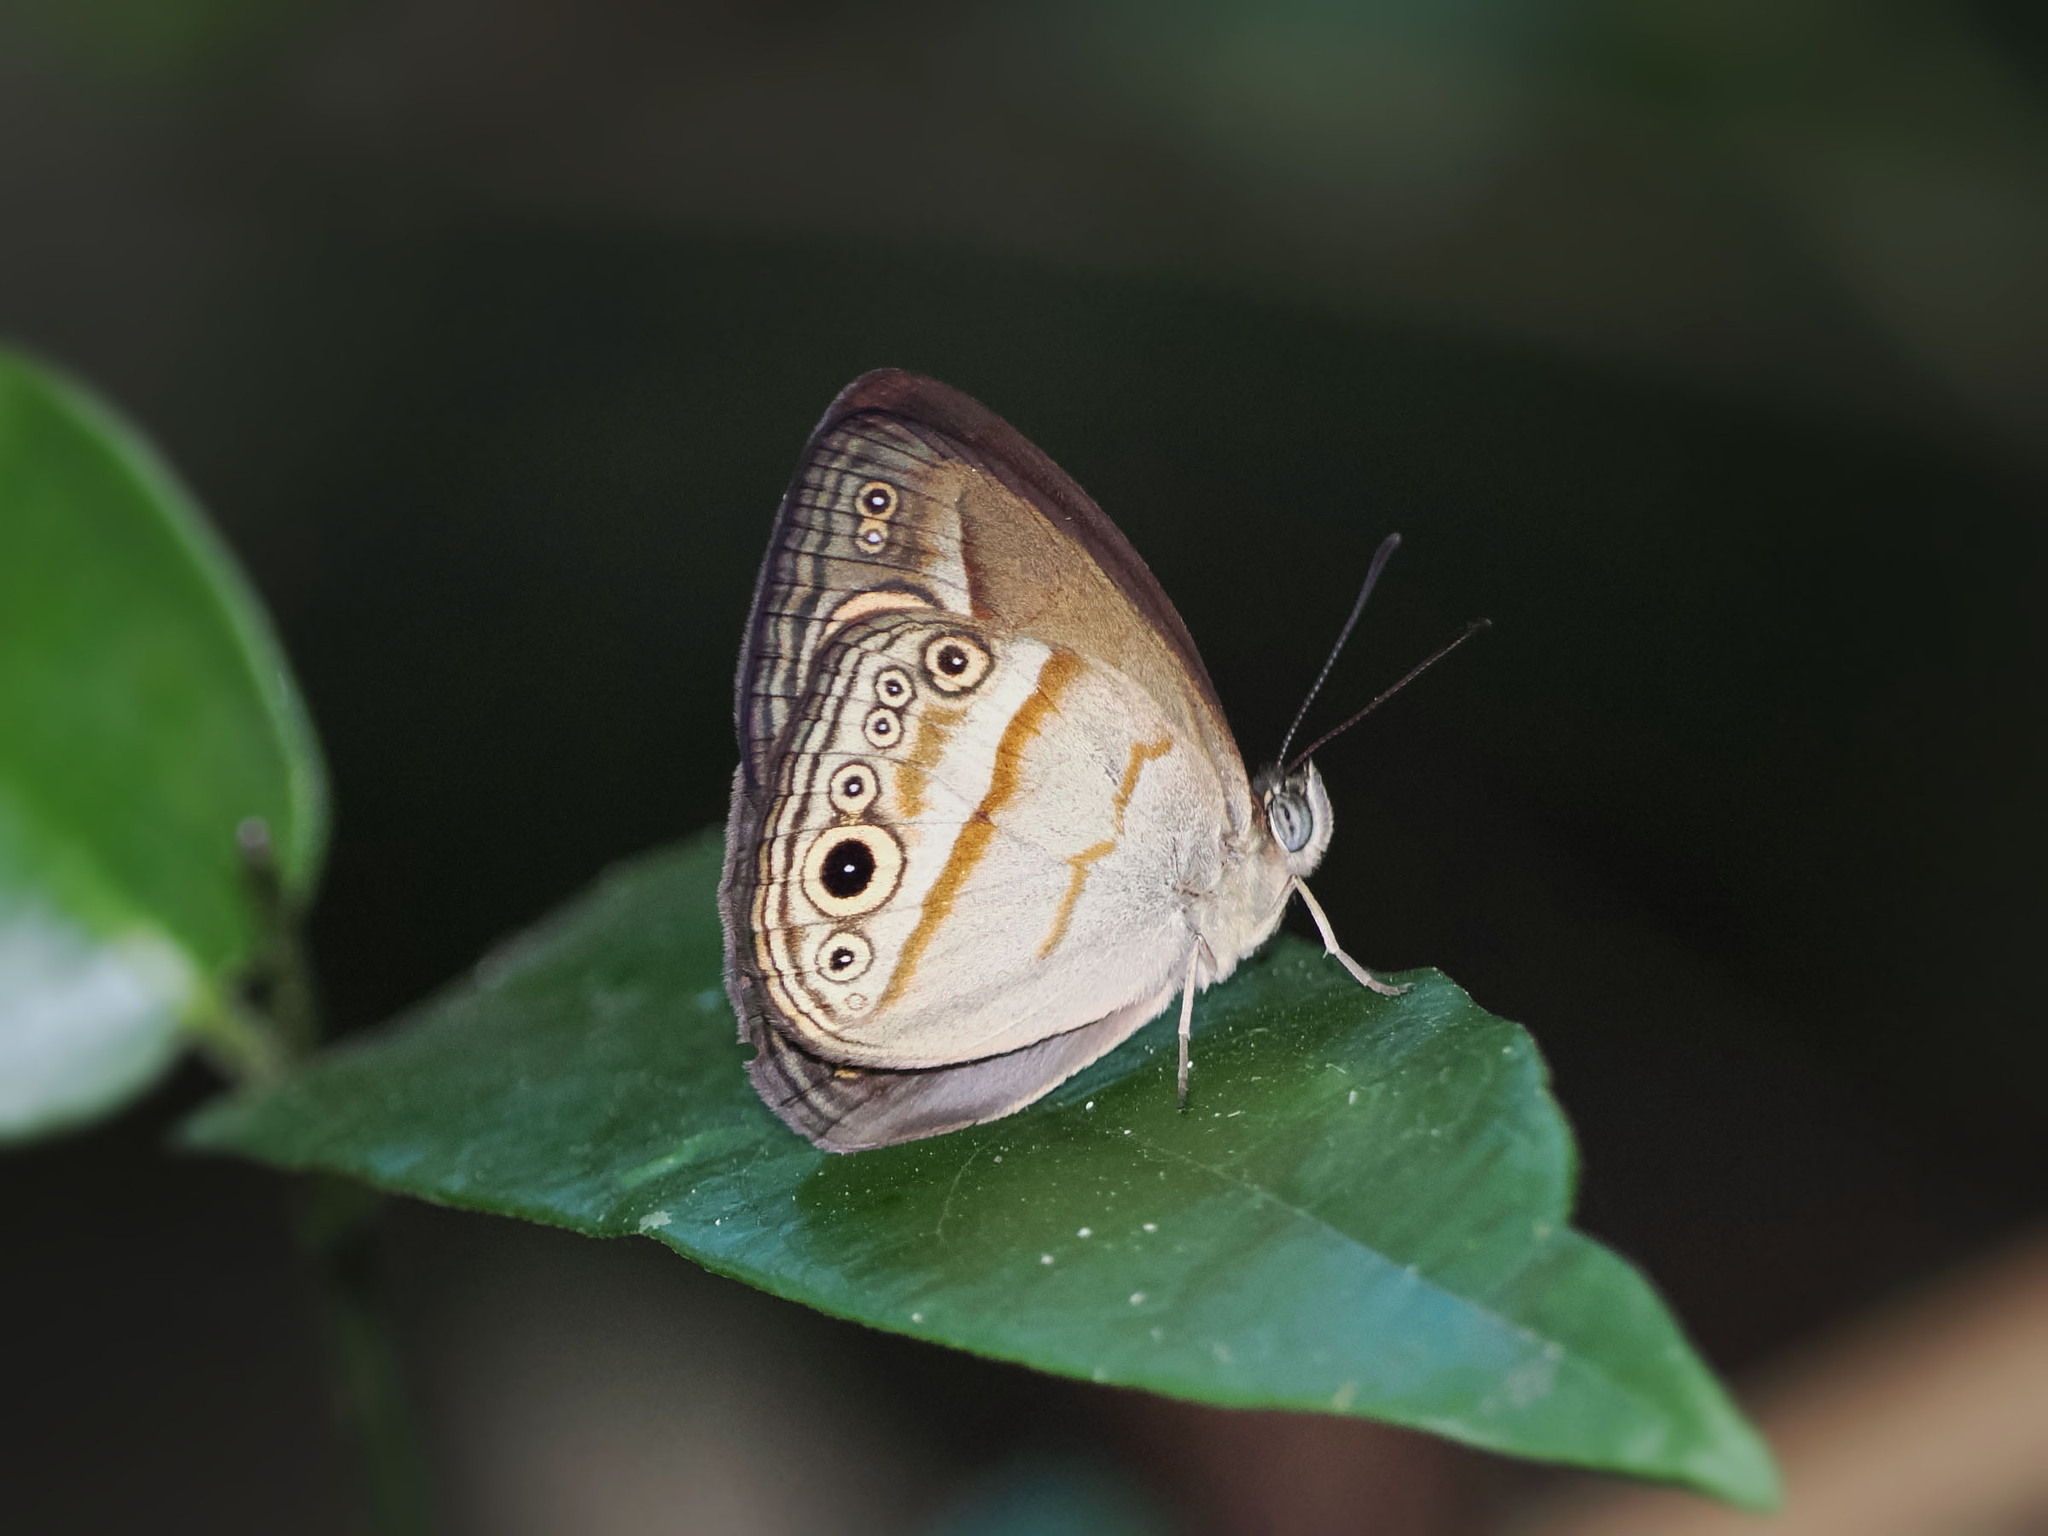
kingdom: Animalia
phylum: Arthropoda
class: Insecta
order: Lepidoptera
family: Nymphalidae
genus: Mycalesis
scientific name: Mycalesis ita
